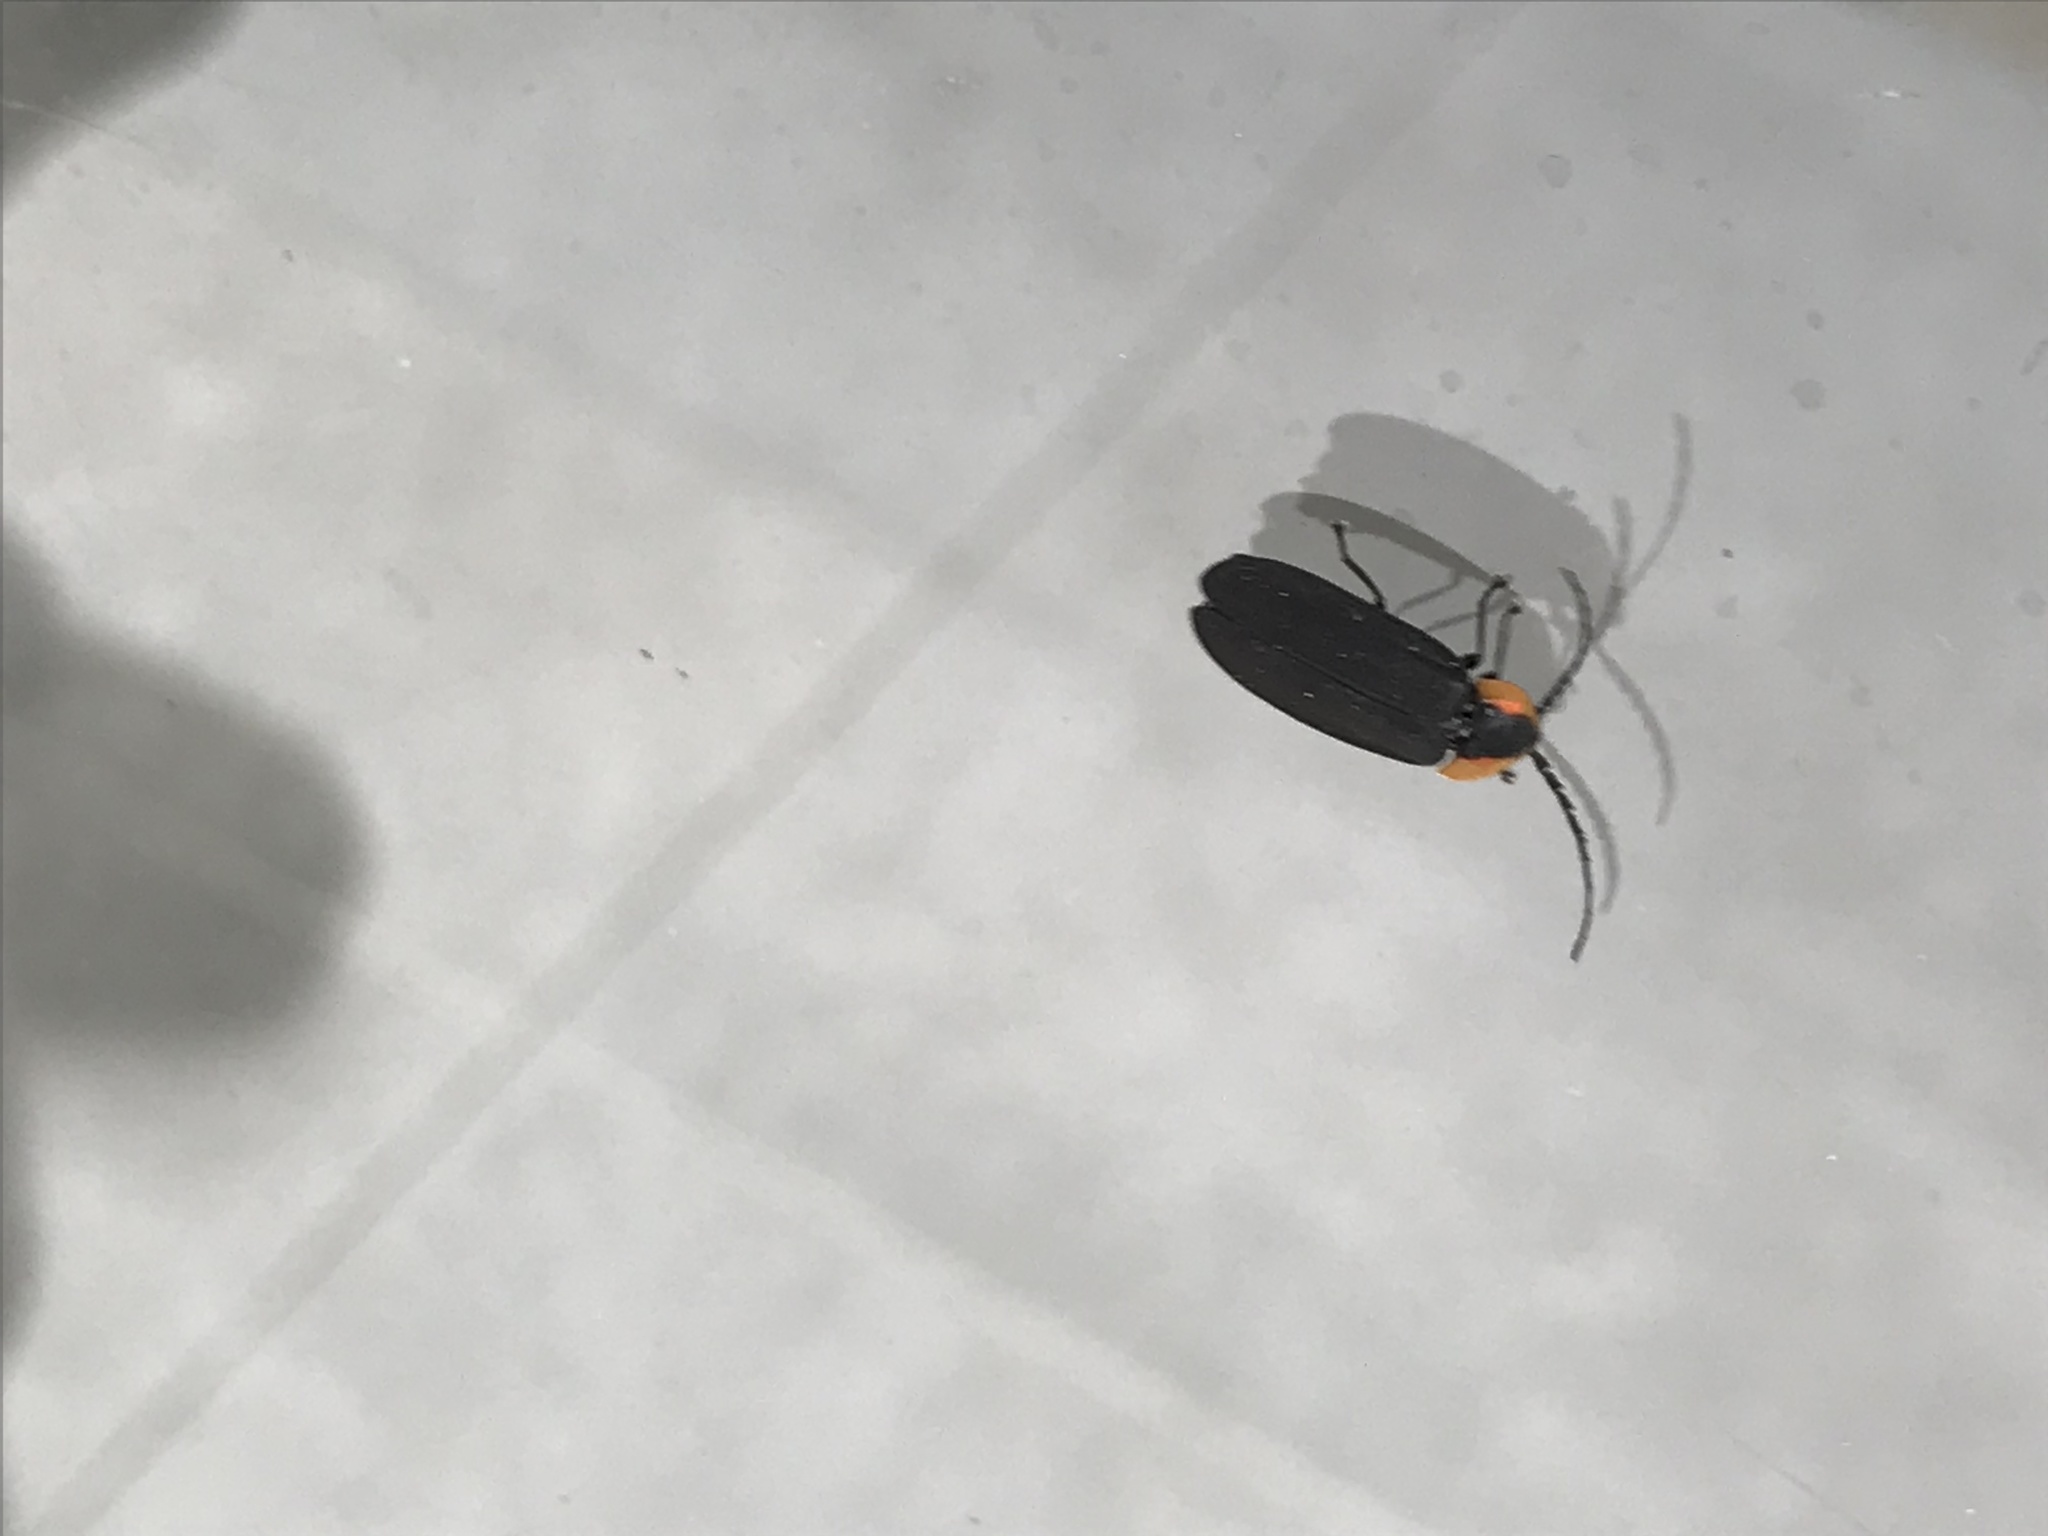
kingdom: Animalia
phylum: Arthropoda
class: Insecta
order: Coleoptera
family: Lampyridae
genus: Lucidota
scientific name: Lucidota atra
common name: Black firefly
